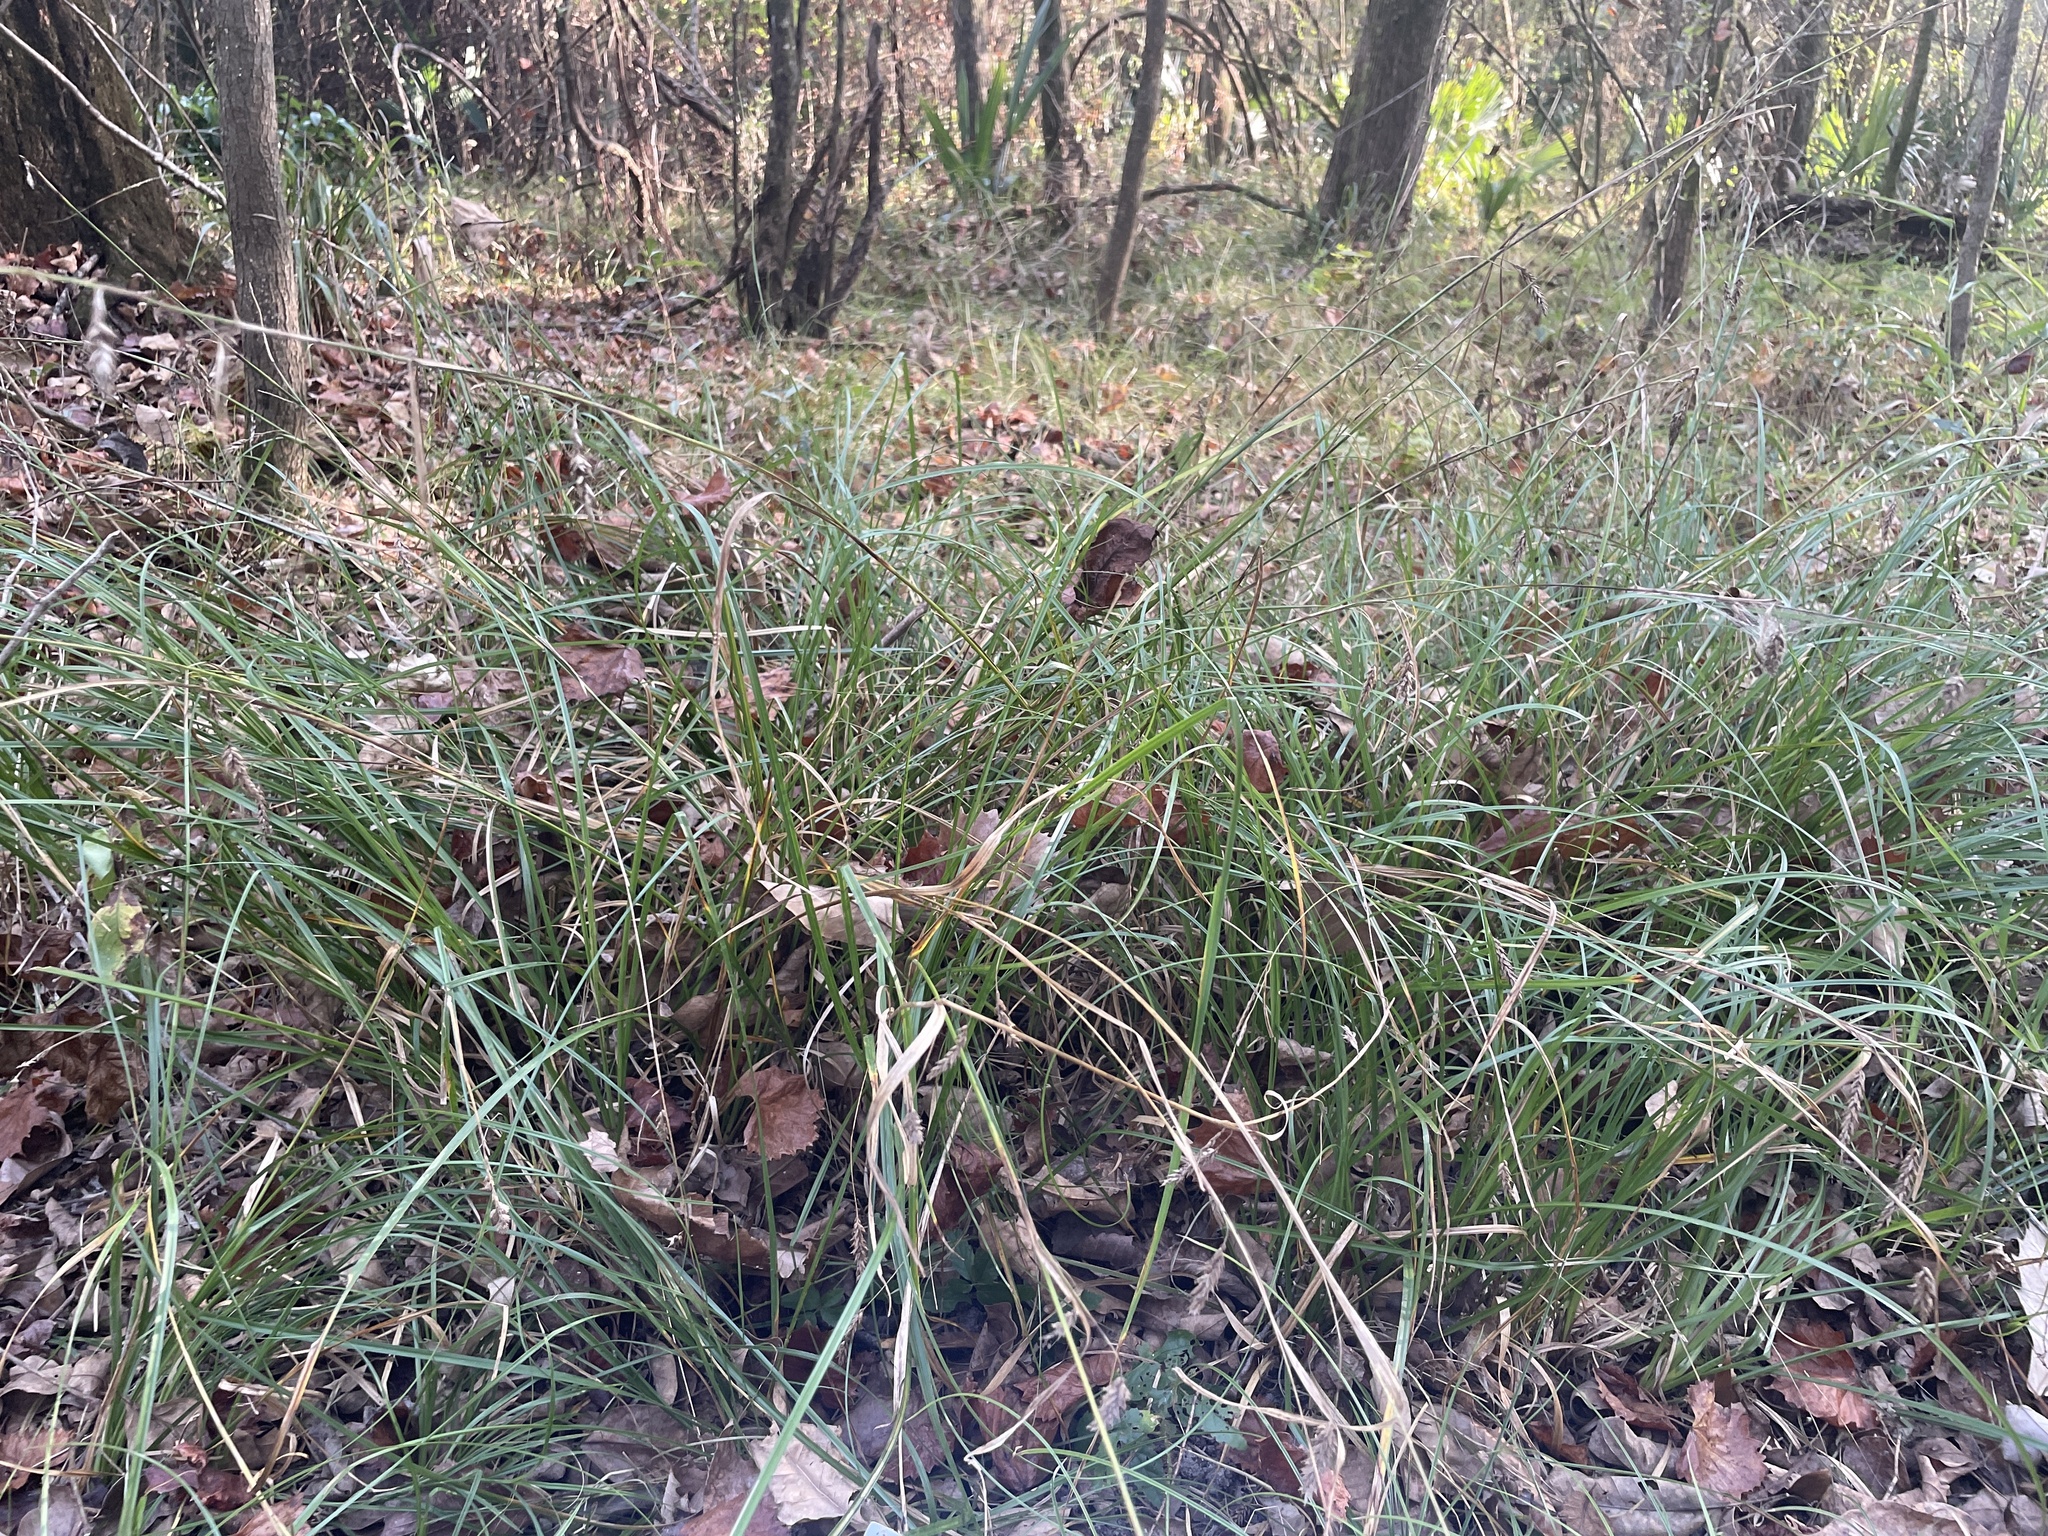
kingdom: Plantae
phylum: Tracheophyta
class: Liliopsida
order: Poales
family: Cyperaceae
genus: Carex
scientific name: Carex cherokeensis
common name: Cherokee sedge
